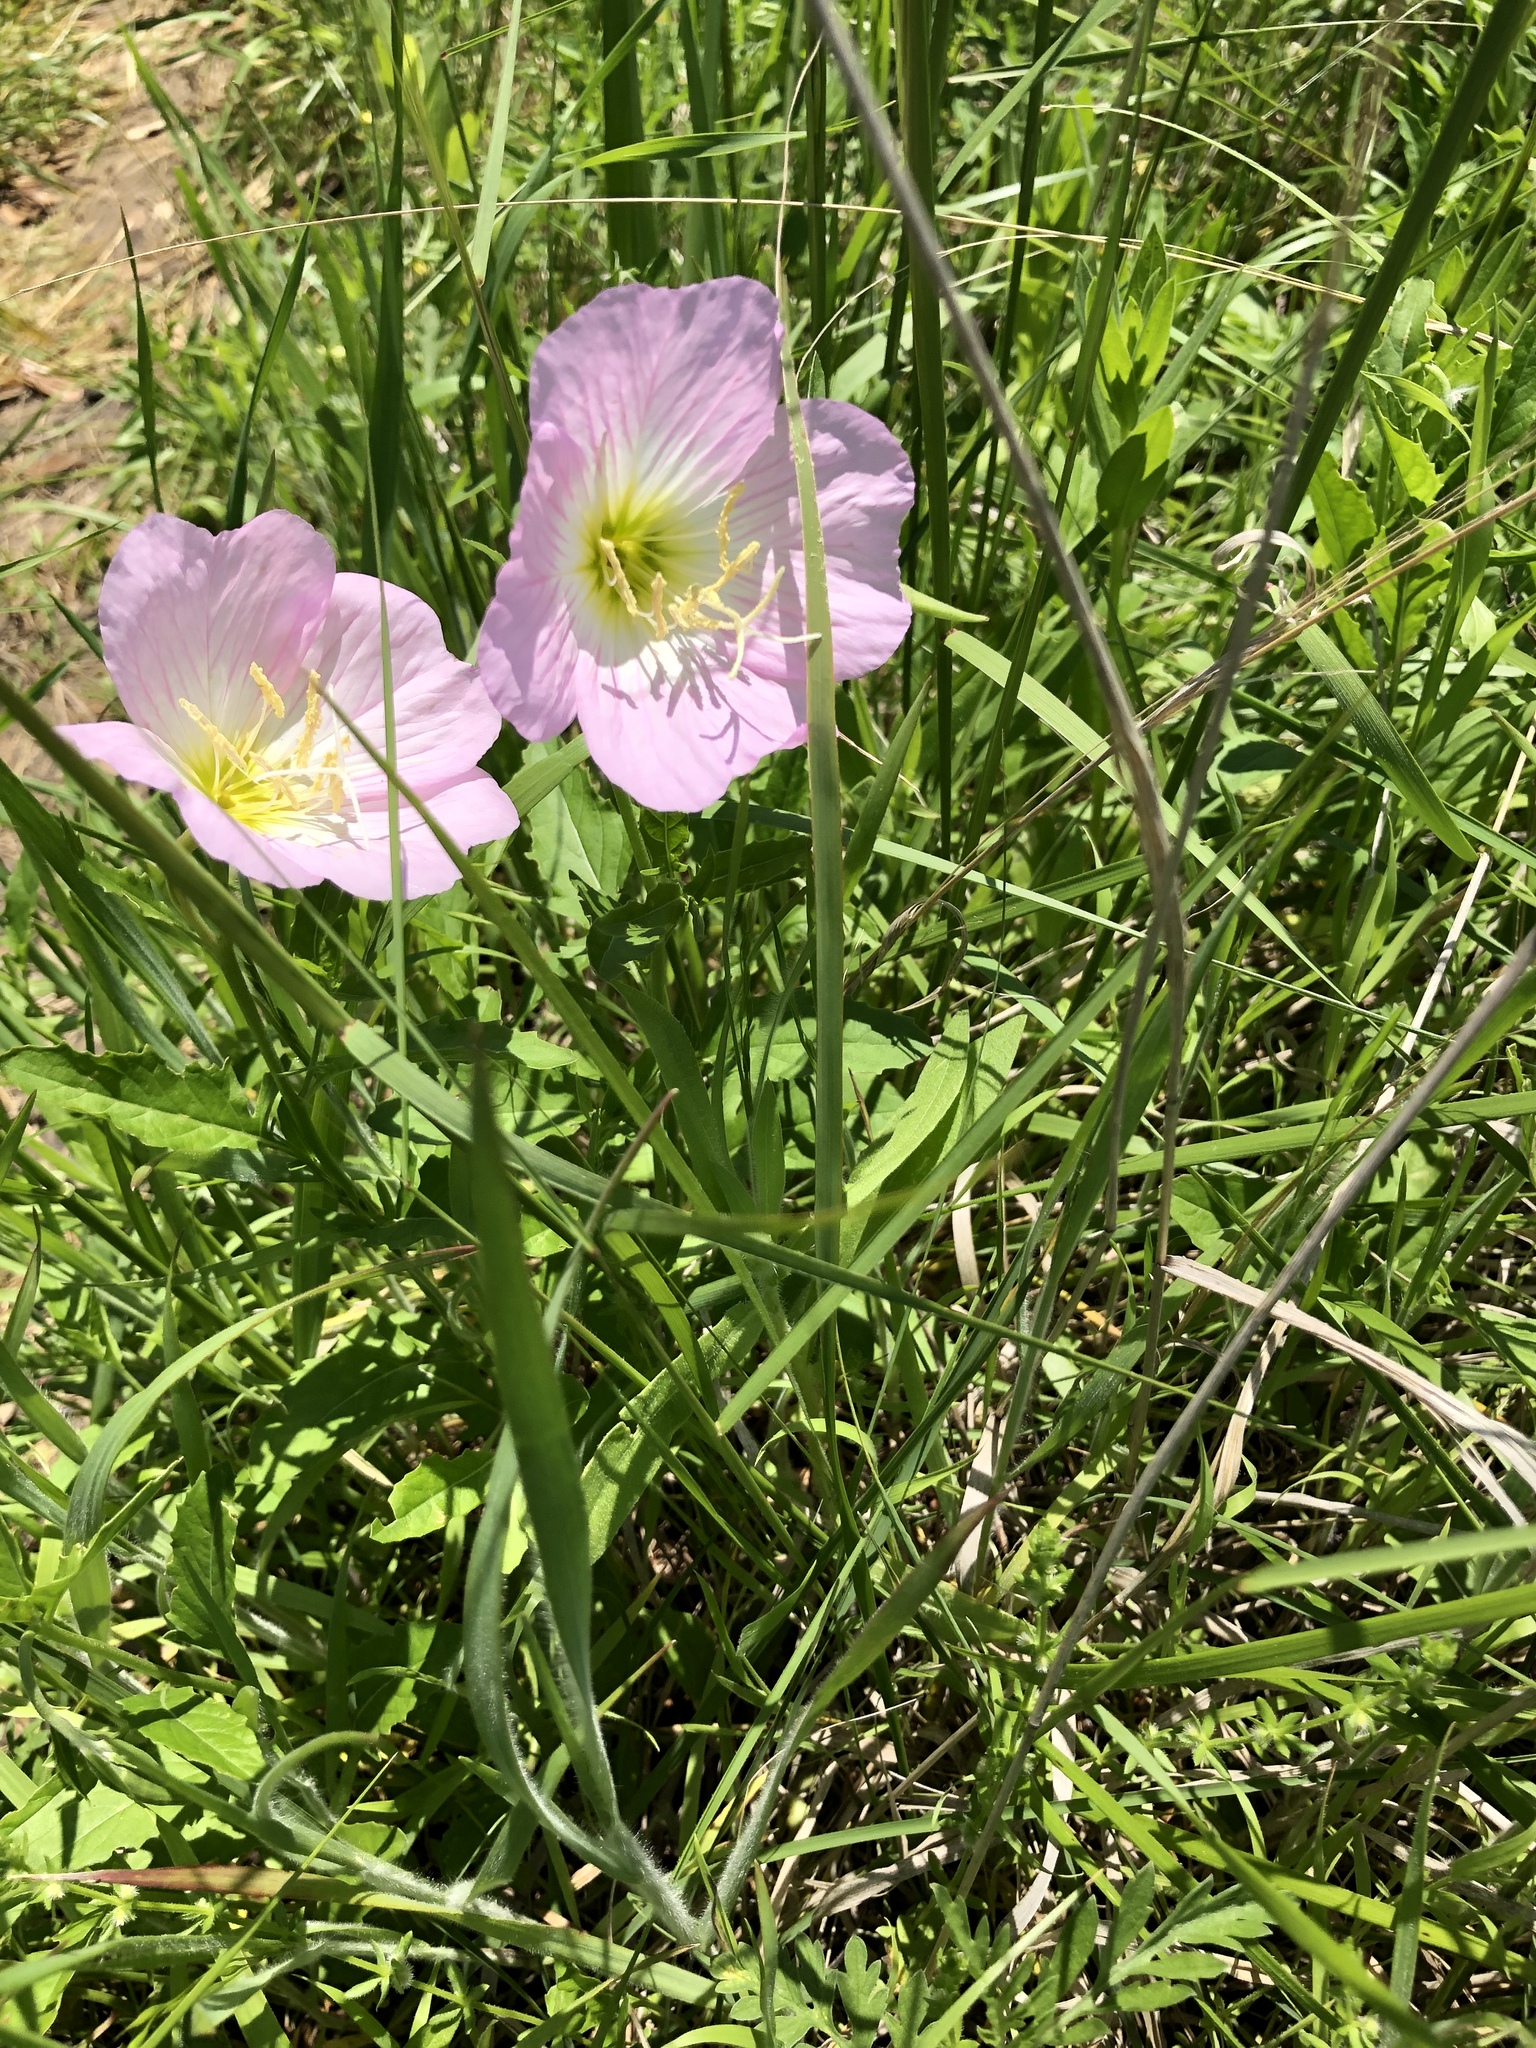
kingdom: Plantae
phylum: Tracheophyta
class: Magnoliopsida
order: Myrtales
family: Onagraceae
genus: Oenothera
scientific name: Oenothera speciosa
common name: White evening-primrose
